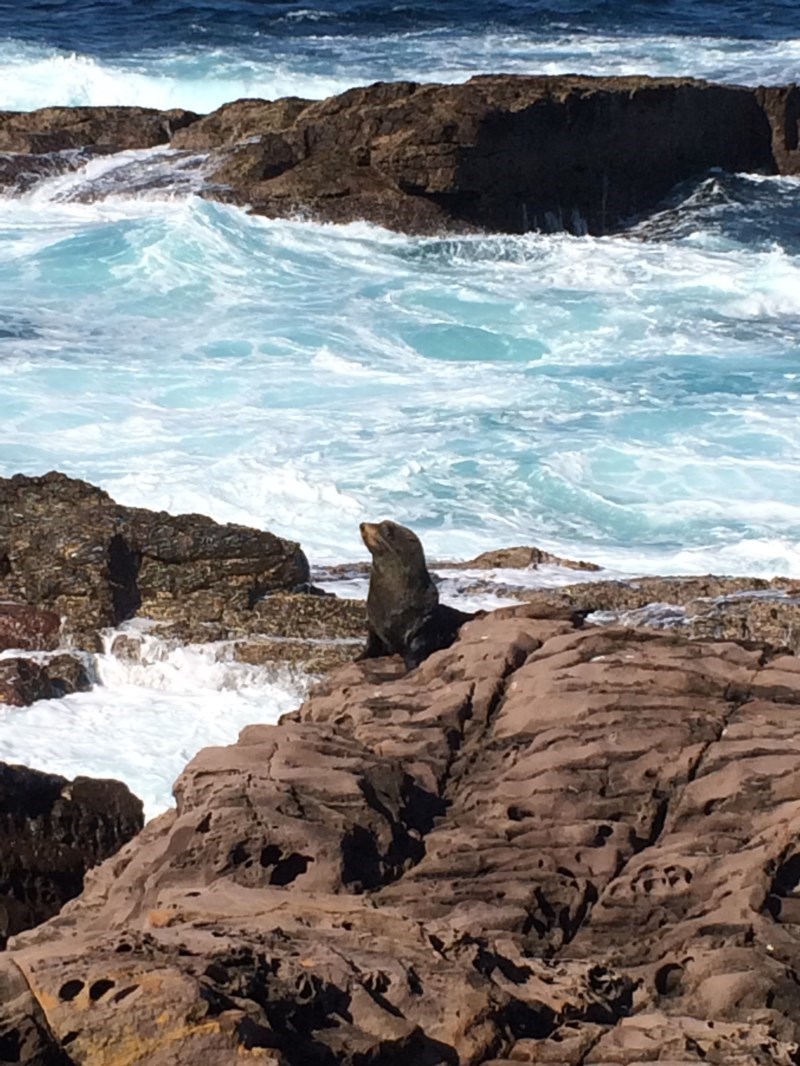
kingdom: Animalia
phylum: Chordata
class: Mammalia
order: Carnivora
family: Otariidae
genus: Arctocephalus
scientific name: Arctocephalus pusillus
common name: Brown fur seal
